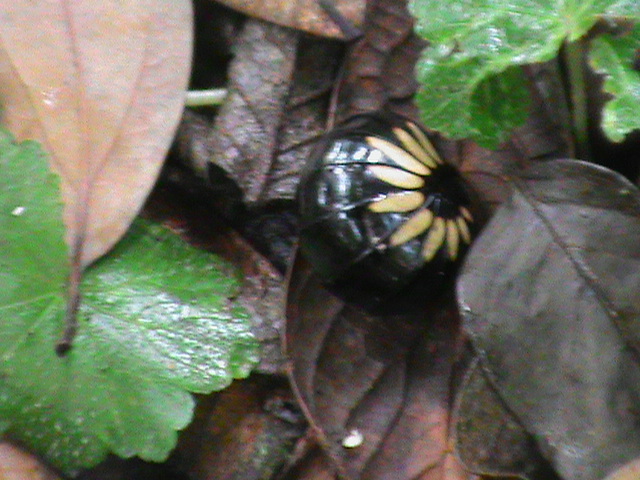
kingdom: Animalia
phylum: Arthropoda
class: Diplopoda
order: Sphaerotheriida
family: Arthrosphaeridae
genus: Arthrosphaera
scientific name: Arthrosphaera zebraica
